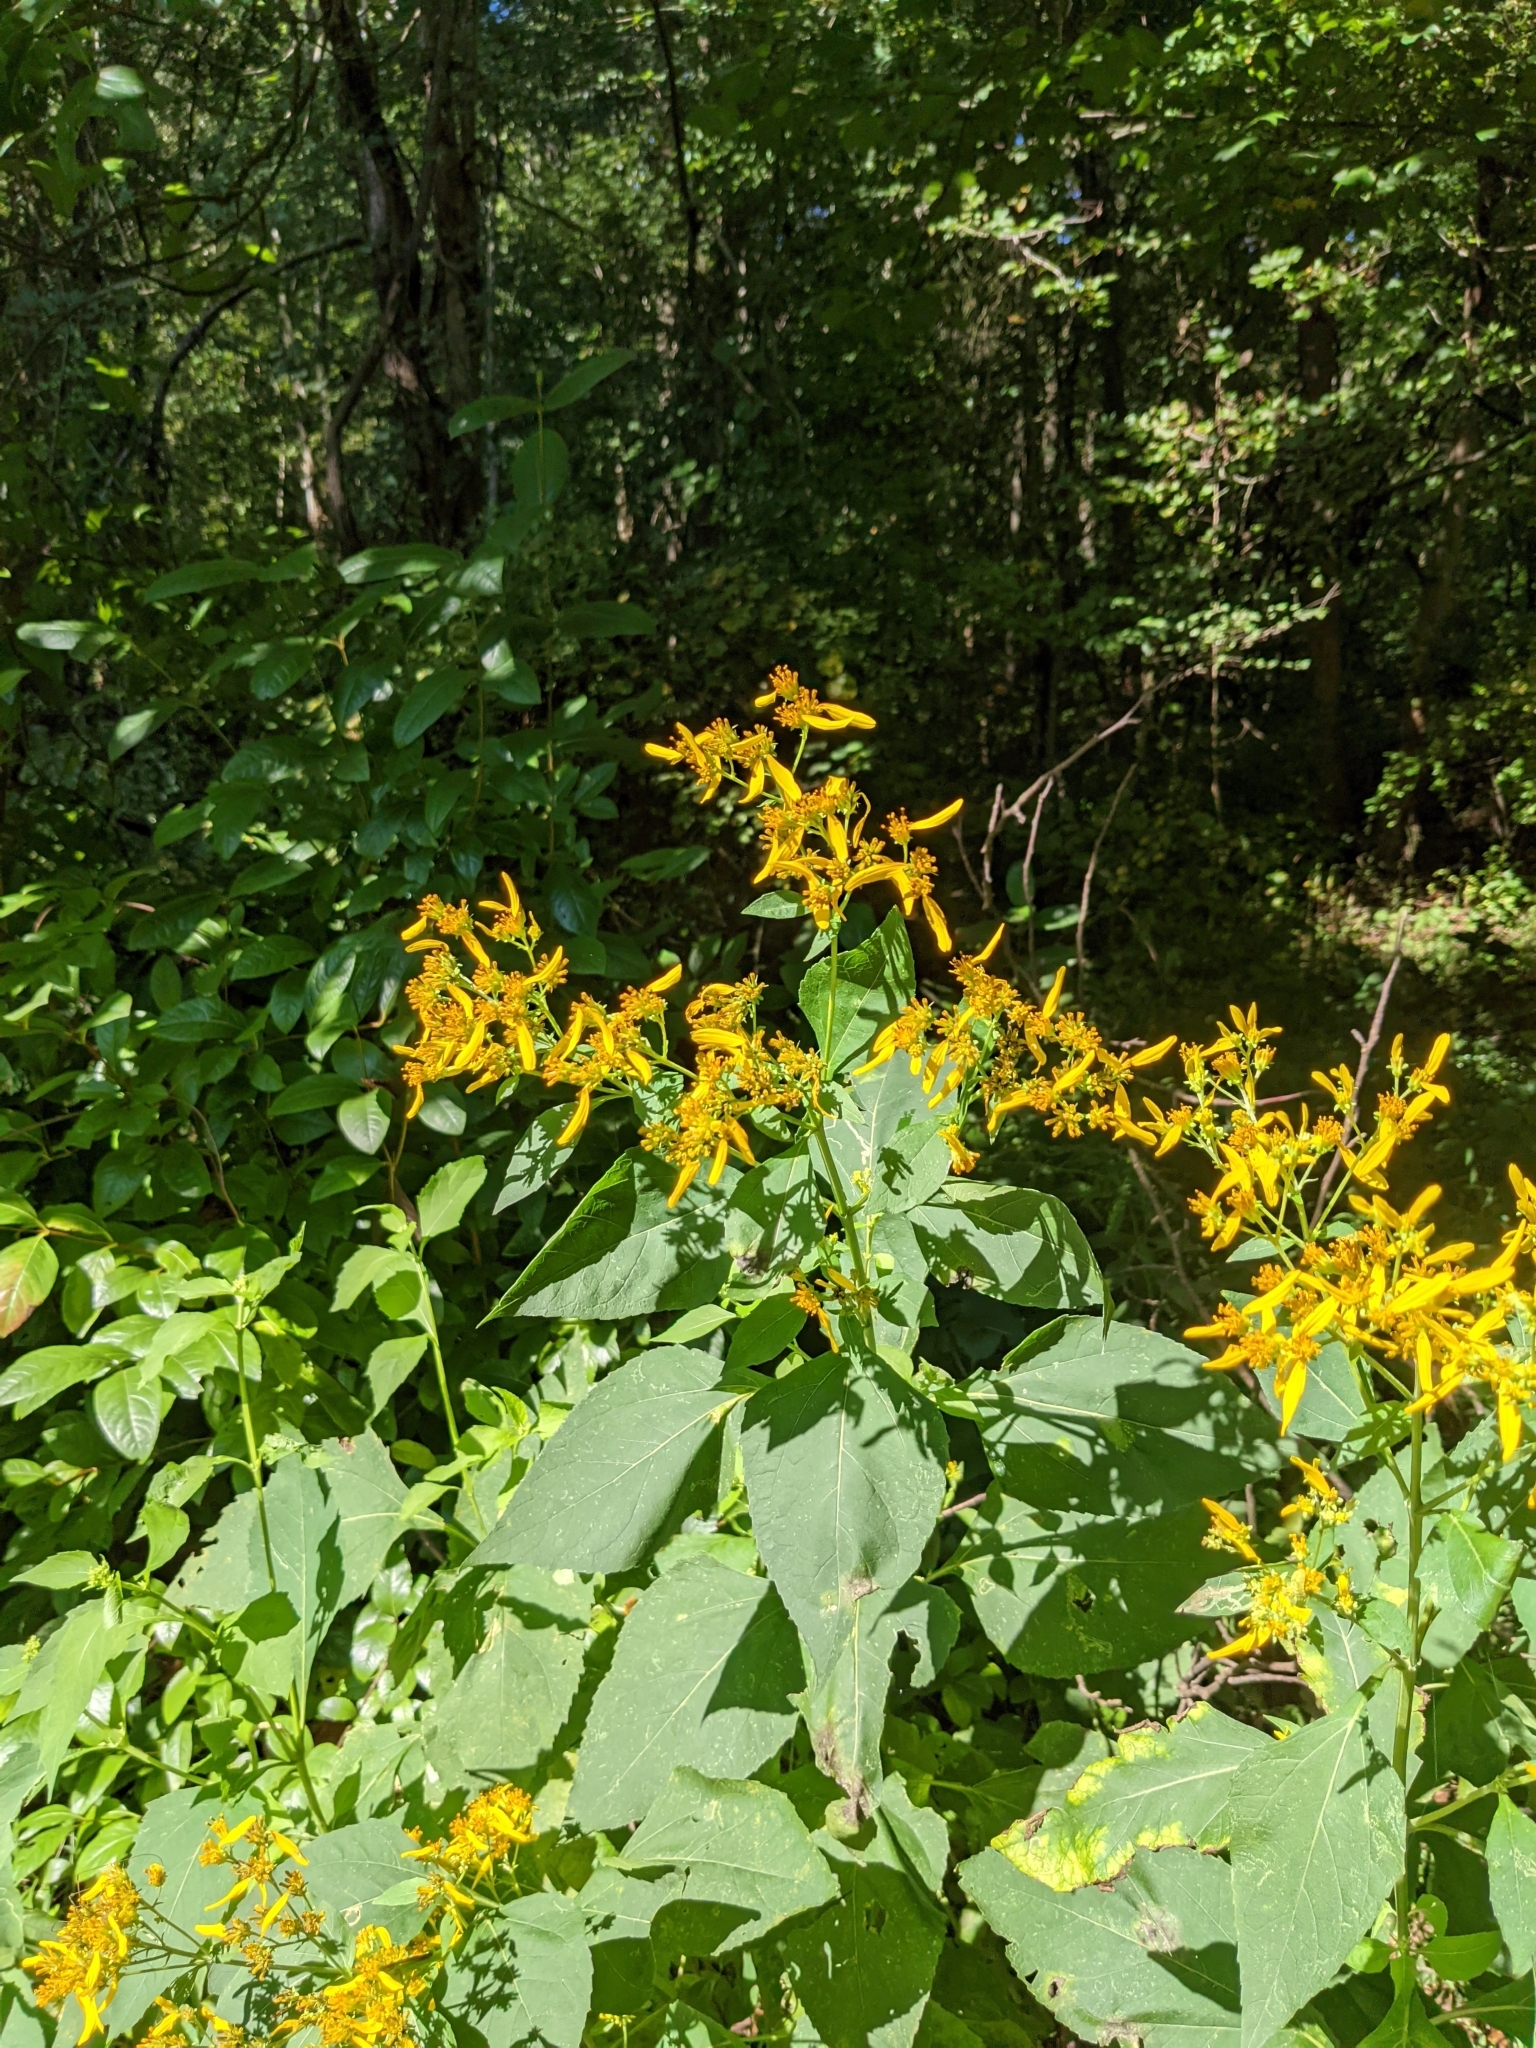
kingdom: Plantae
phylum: Tracheophyta
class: Magnoliopsida
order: Asterales
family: Asteraceae
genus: Verbesina
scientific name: Verbesina occidentalis
